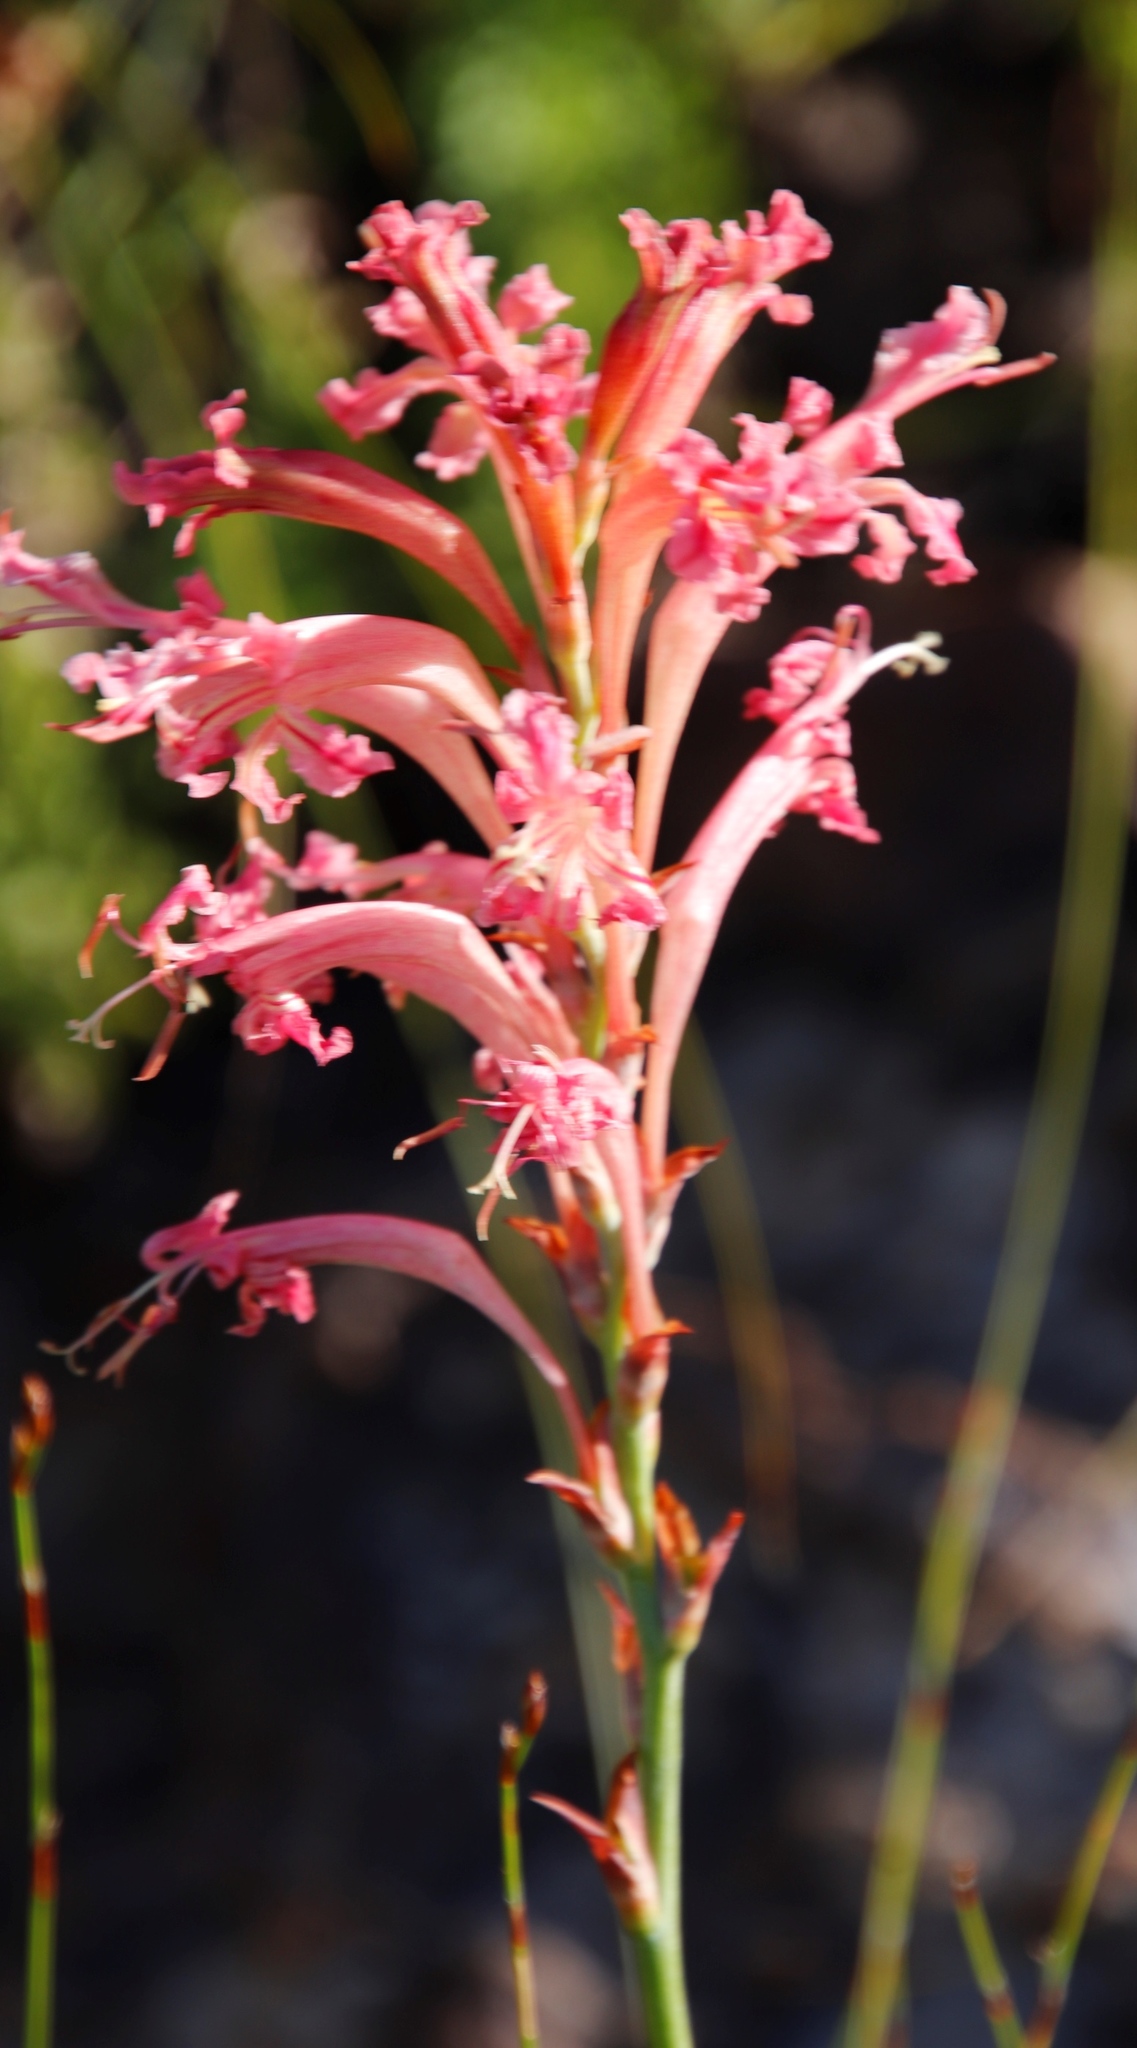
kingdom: Plantae
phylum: Tracheophyta
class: Liliopsida
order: Asparagales
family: Iridaceae
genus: Tritoniopsis
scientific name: Tritoniopsis antholyza
